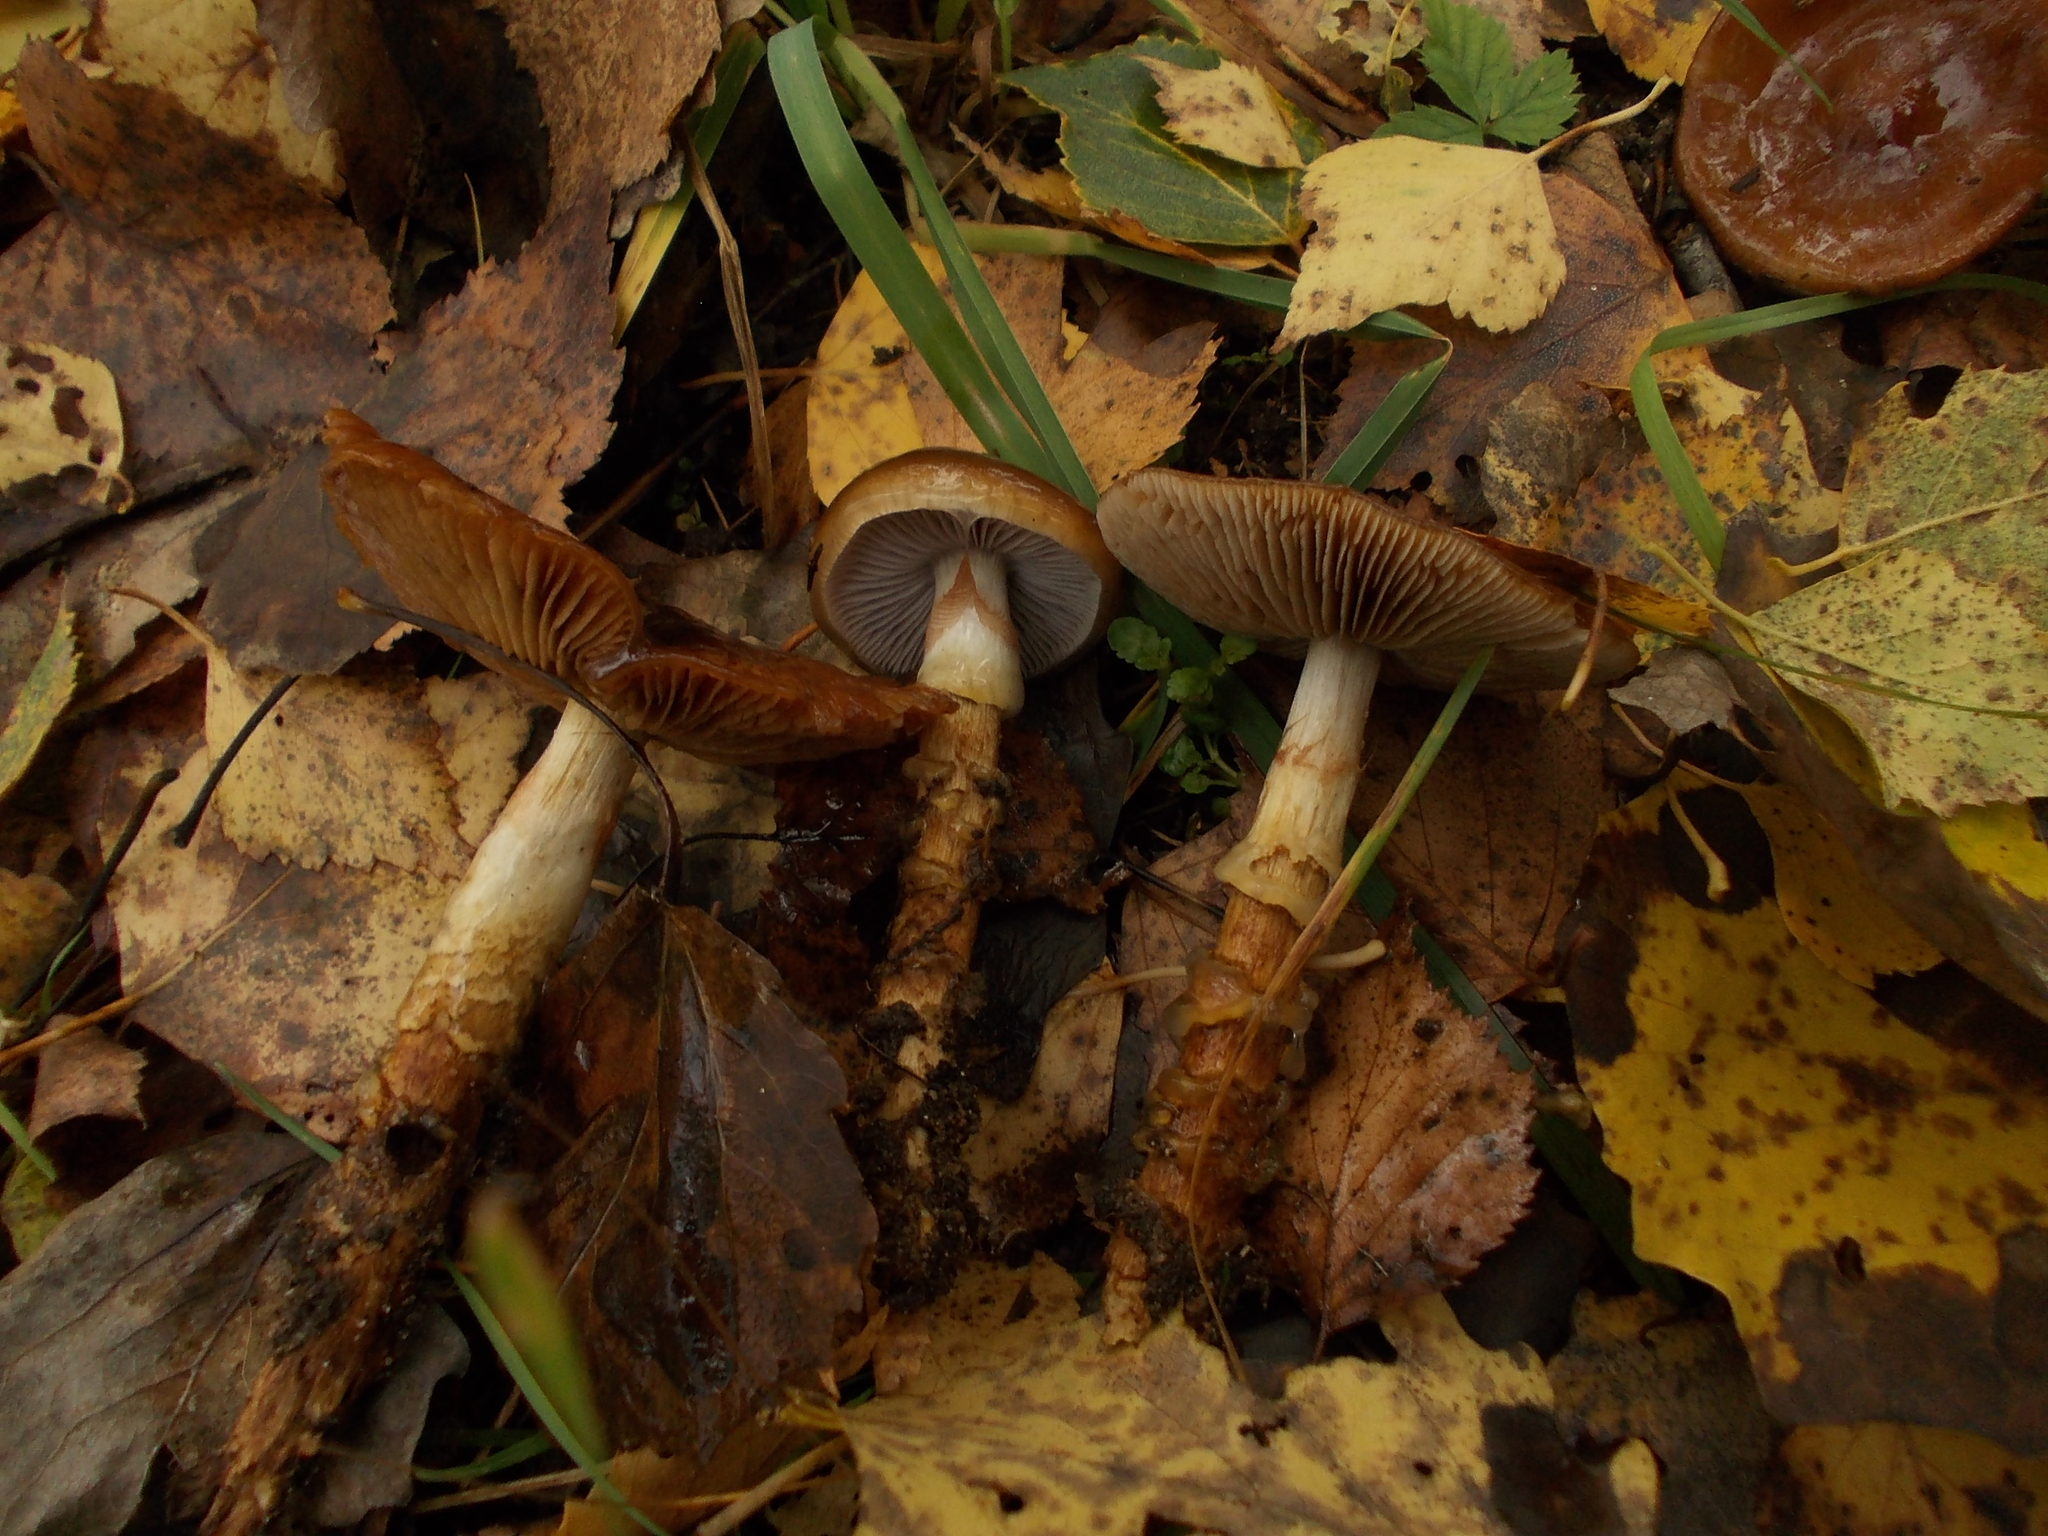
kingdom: Fungi
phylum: Basidiomycota
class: Agaricomycetes
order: Agaricales
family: Cortinariaceae
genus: Cortinarius
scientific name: Cortinarius trivialis
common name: Girdled webcap
